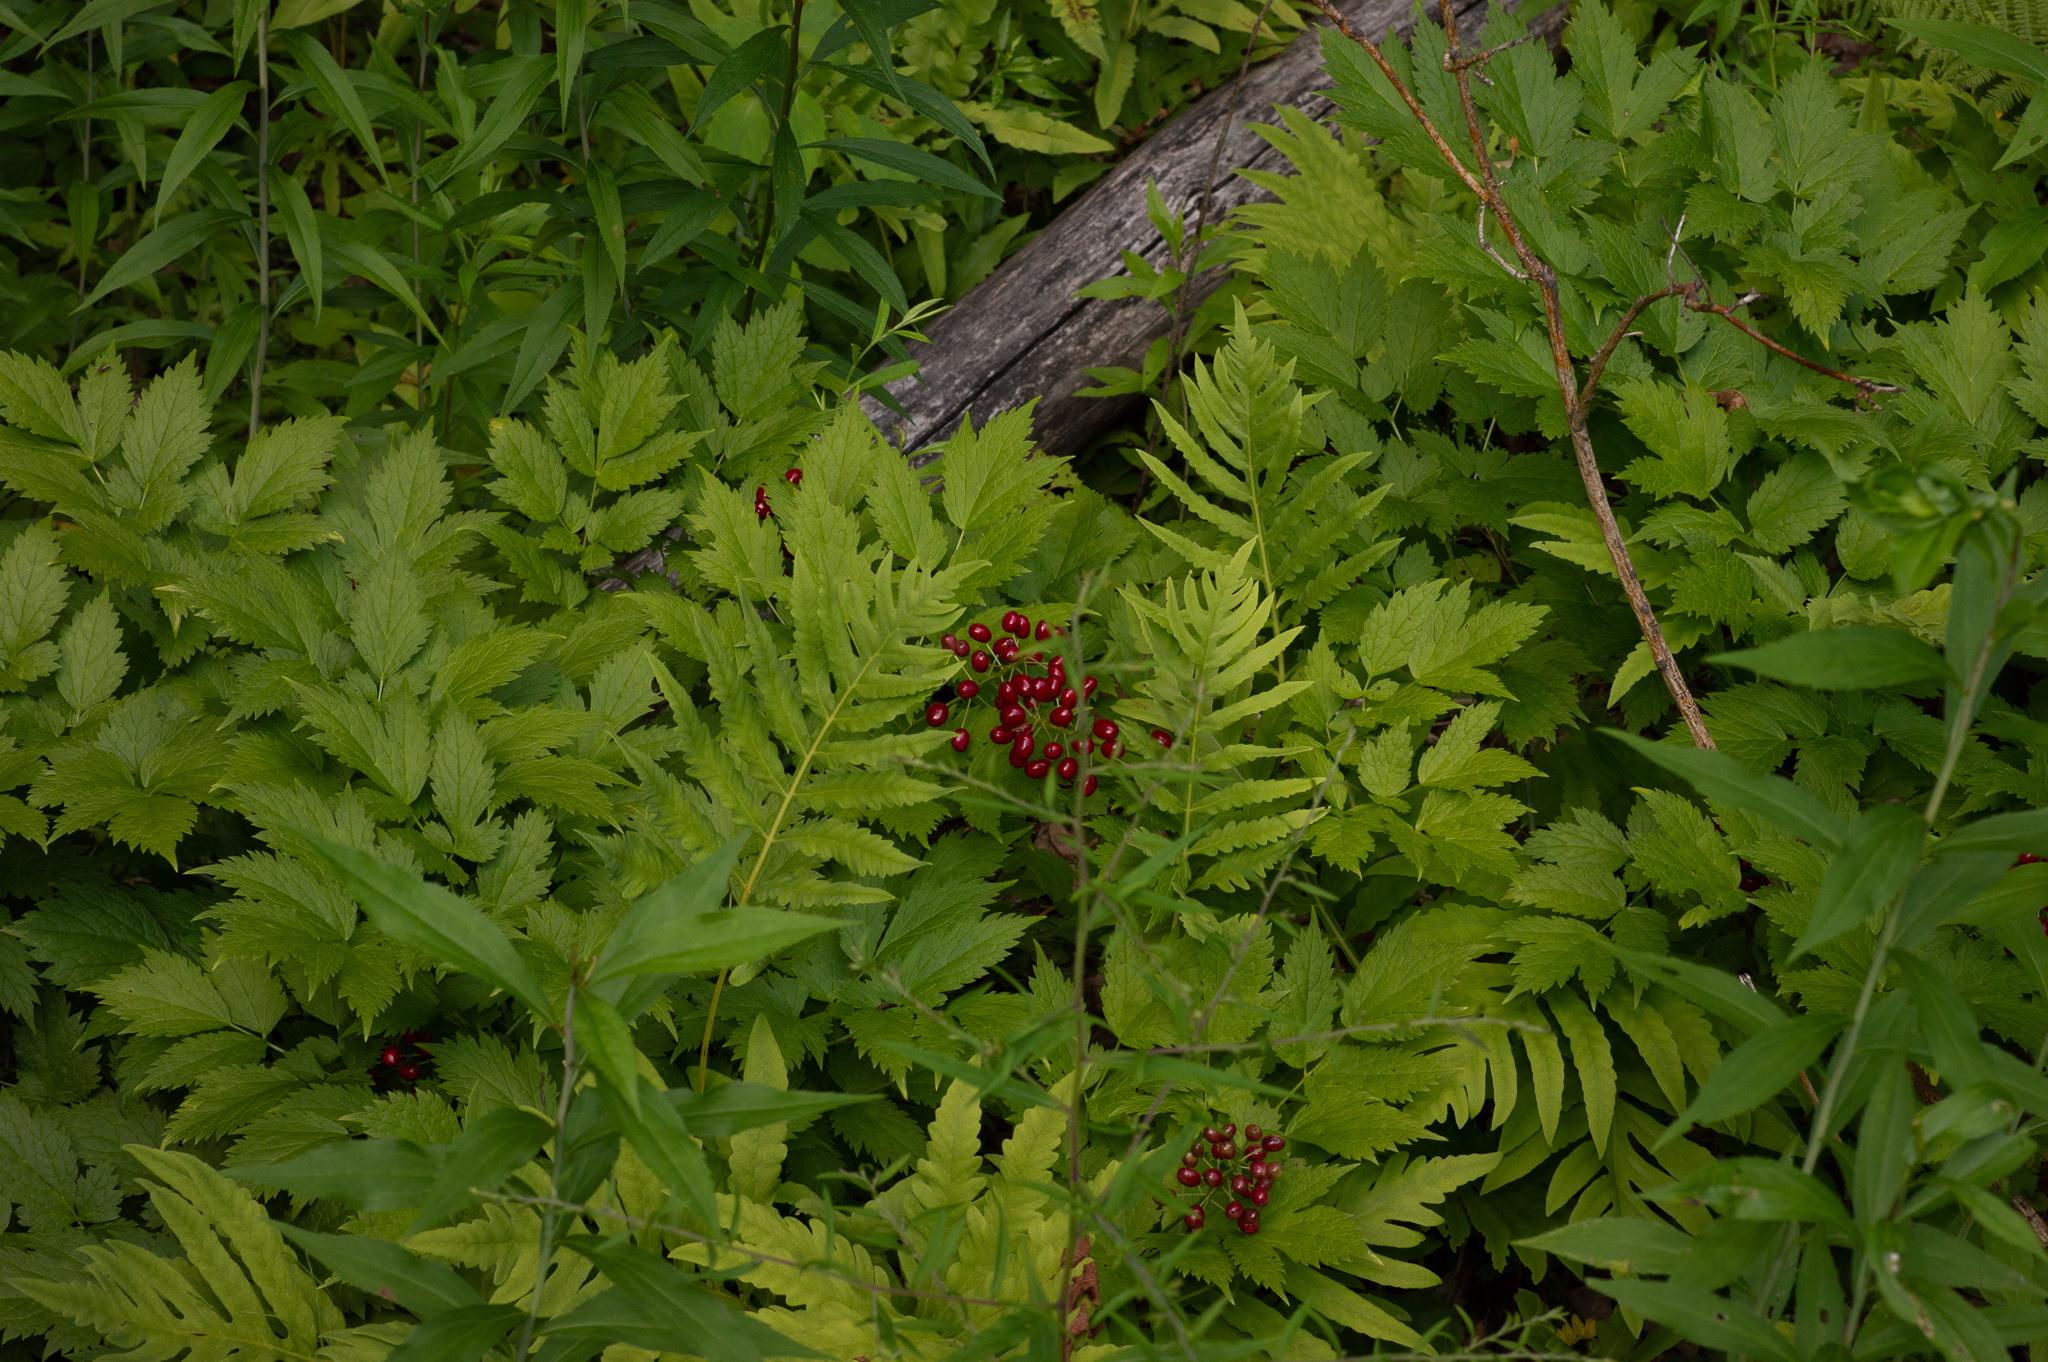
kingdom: Plantae
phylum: Tracheophyta
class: Magnoliopsida
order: Ranunculales
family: Ranunculaceae
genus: Actaea
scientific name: Actaea rubra
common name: Red baneberry
